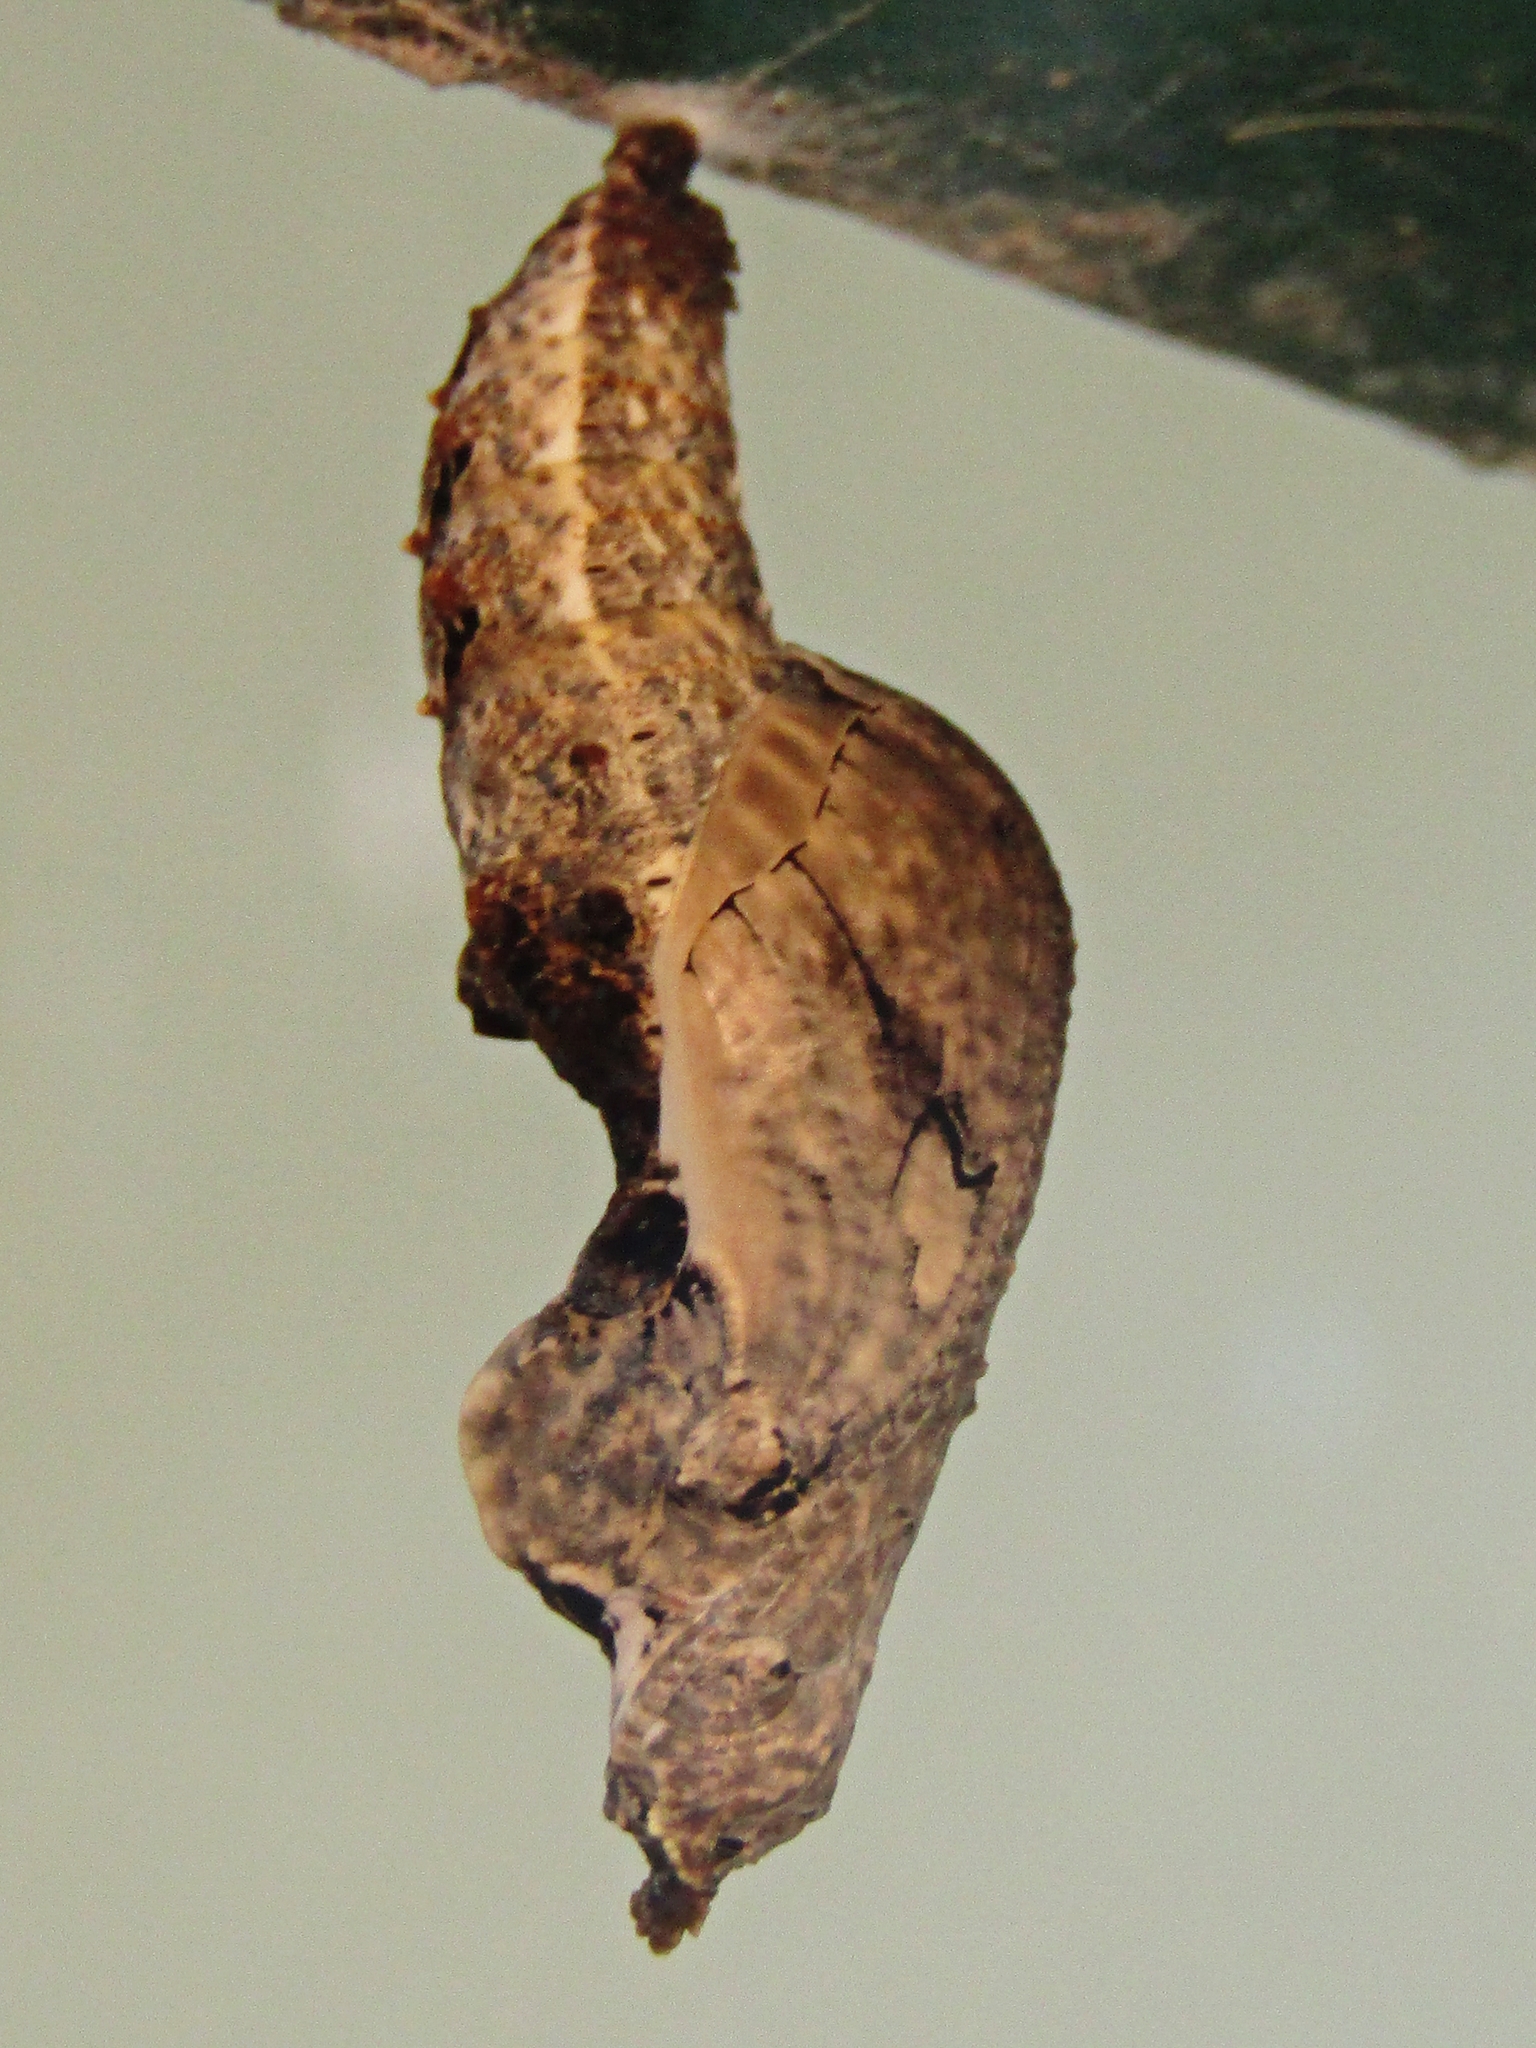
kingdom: Animalia
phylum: Arthropoda
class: Insecta
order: Lepidoptera
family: Nymphalidae
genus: Dione
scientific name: Dione vanillae
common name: Gulf fritillary
